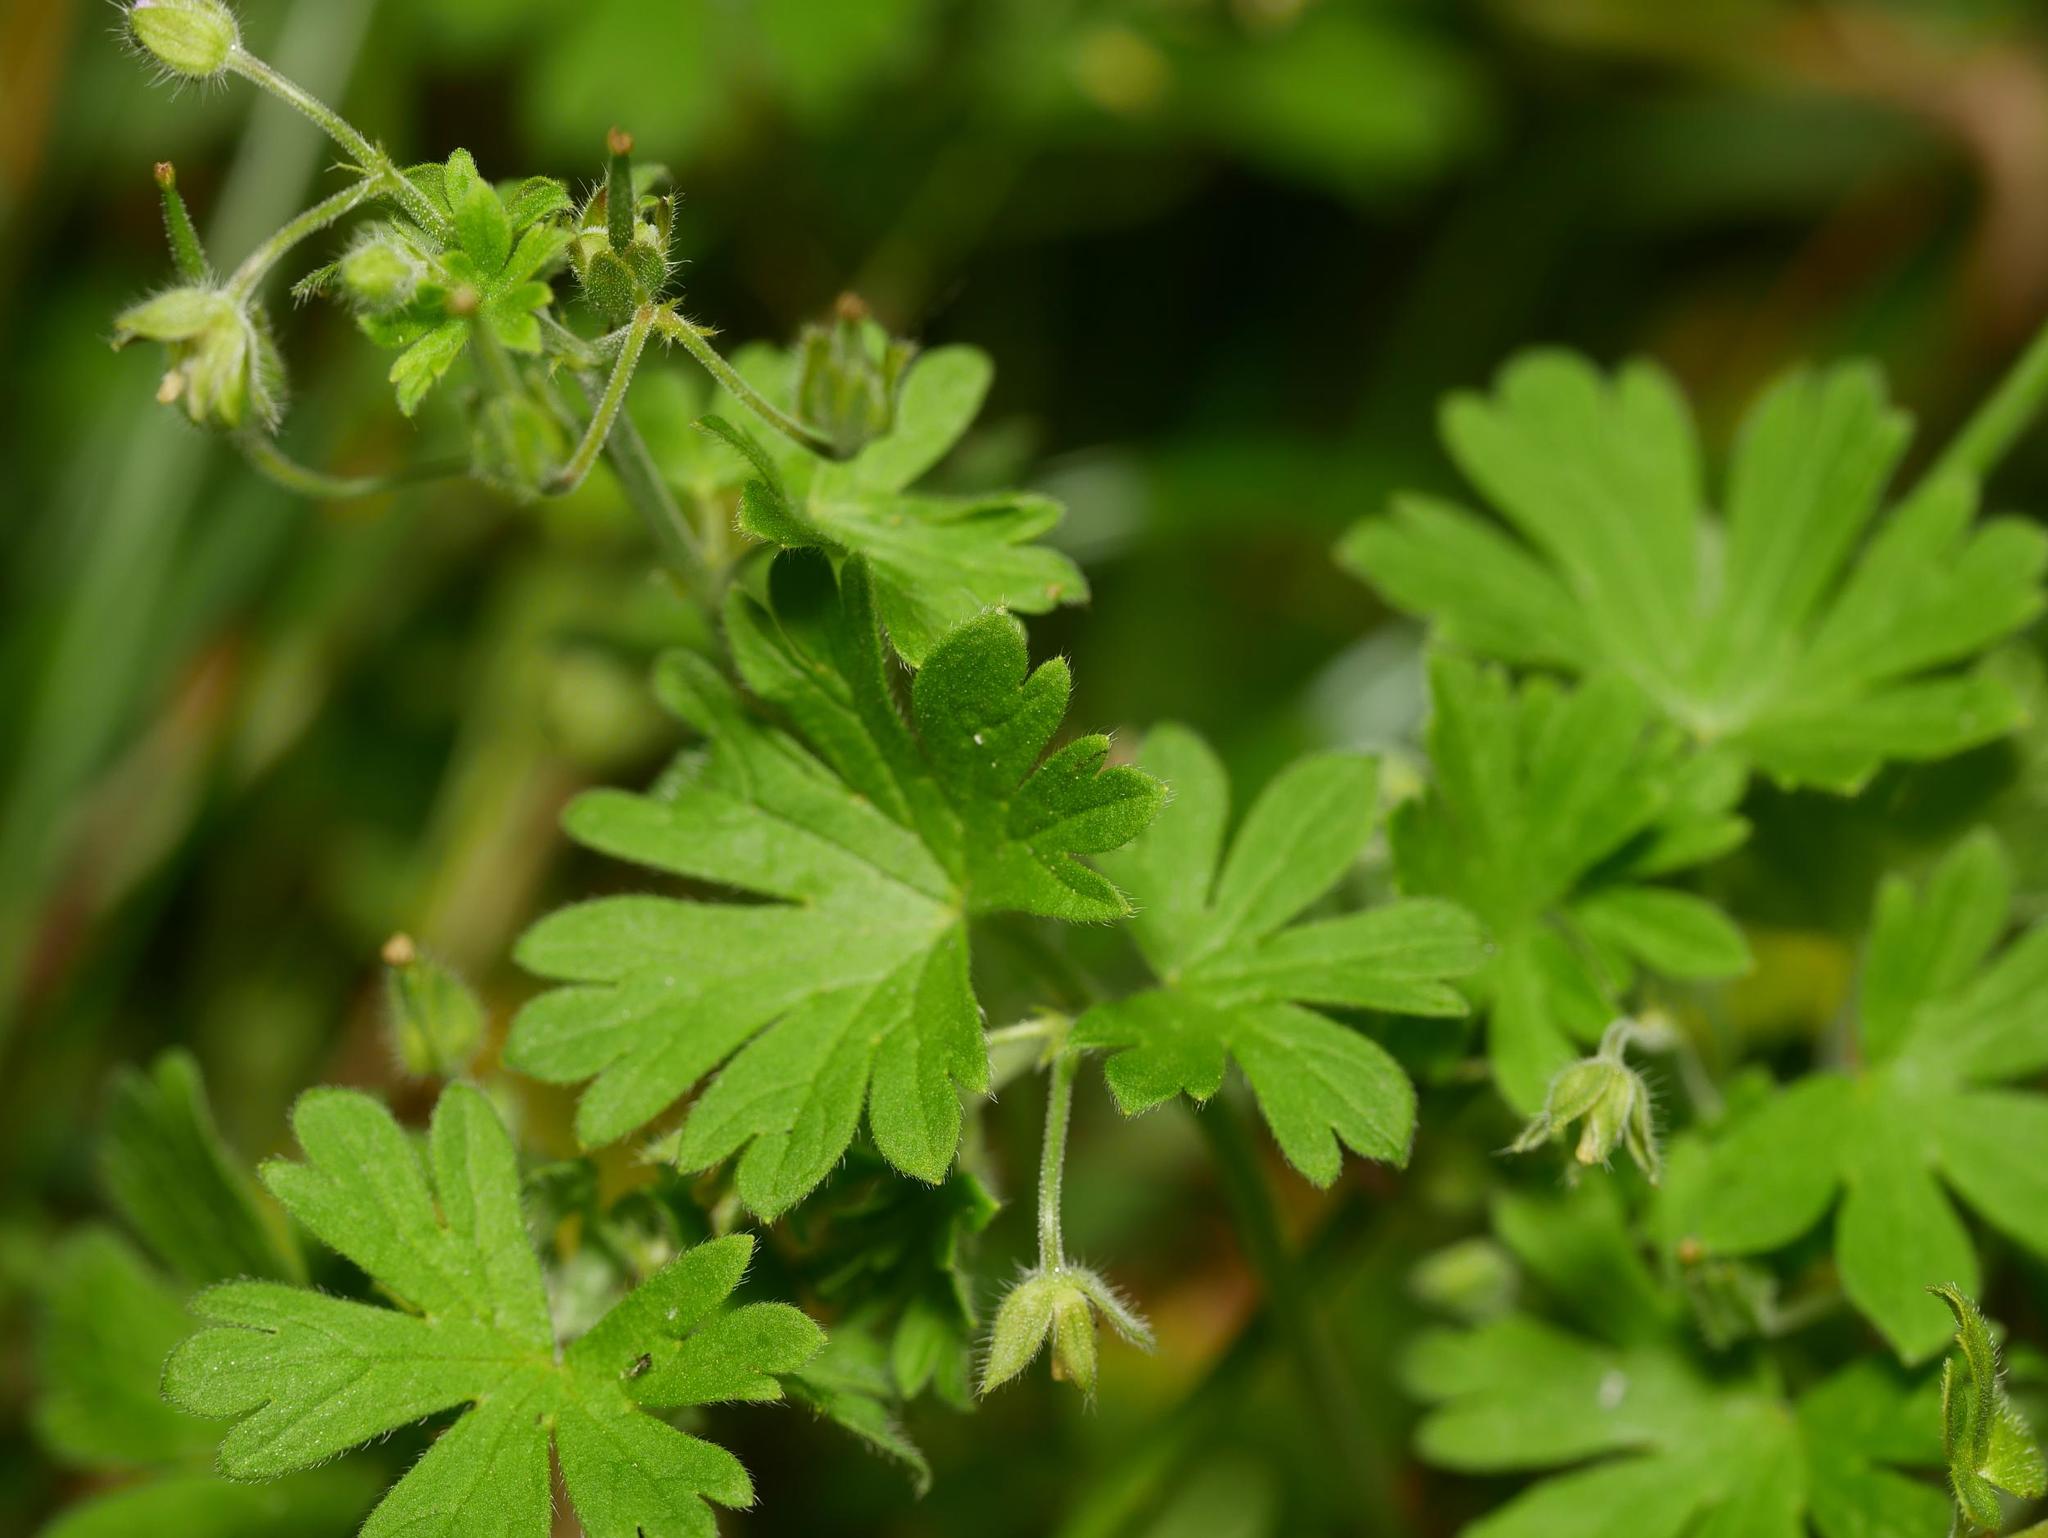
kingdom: Plantae
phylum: Tracheophyta
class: Magnoliopsida
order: Geraniales
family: Geraniaceae
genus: Geranium
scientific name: Geranium pusillum
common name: Small geranium
